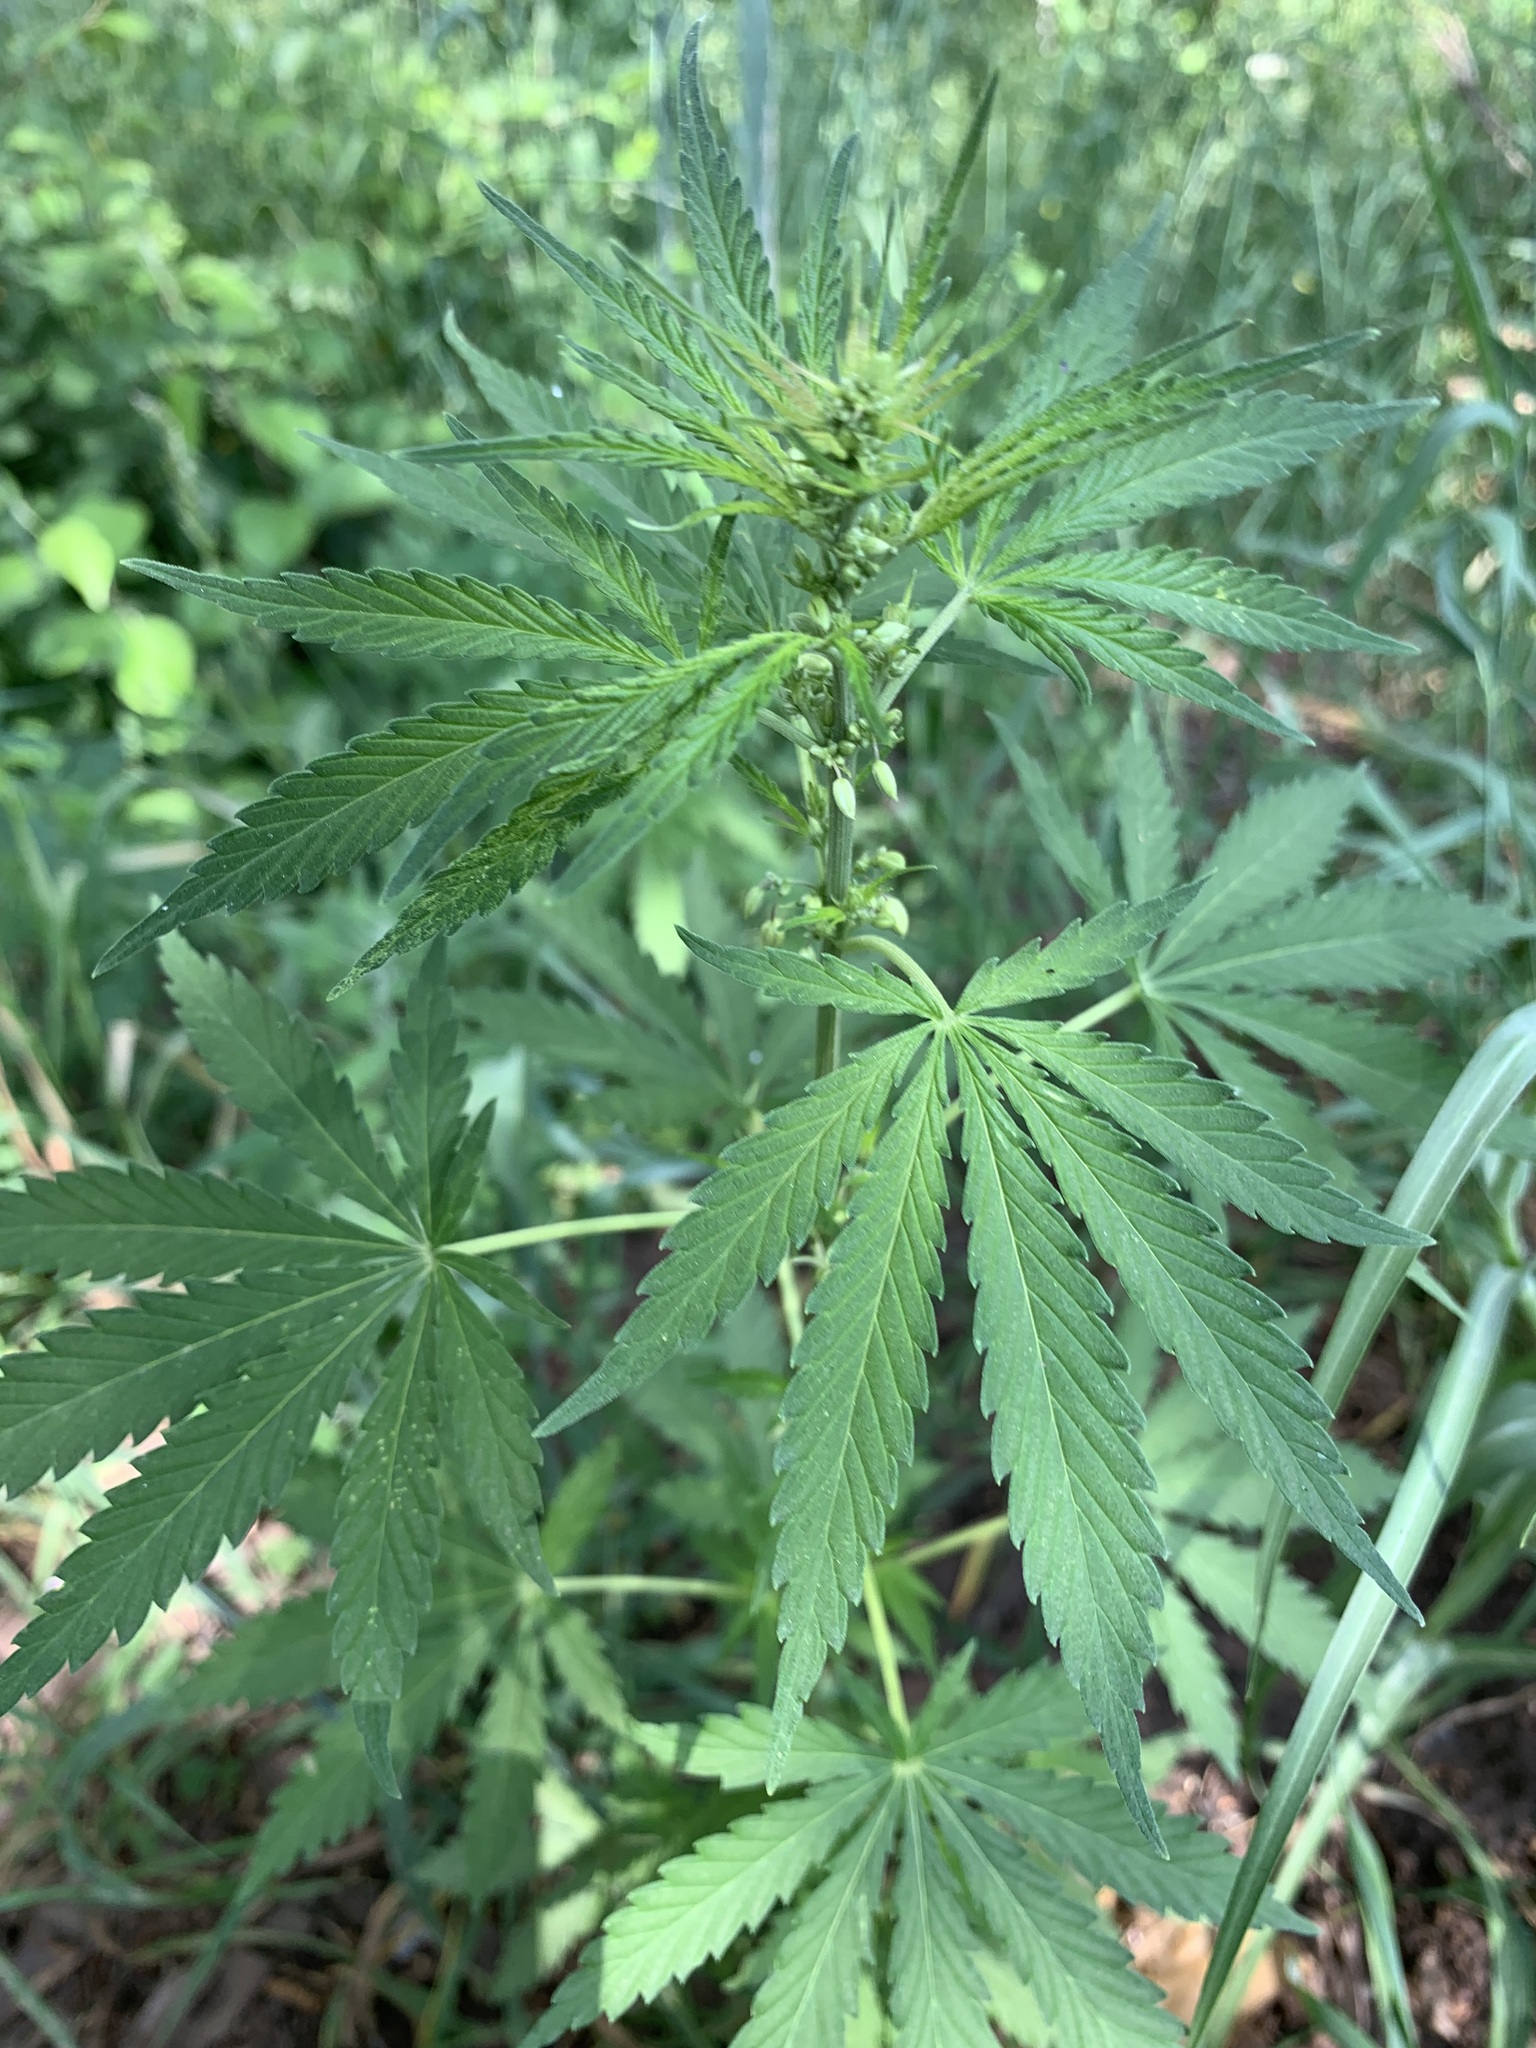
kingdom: Plantae
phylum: Tracheophyta
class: Magnoliopsida
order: Rosales
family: Cannabaceae
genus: Cannabis
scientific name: Cannabis sativa
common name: Hemp
